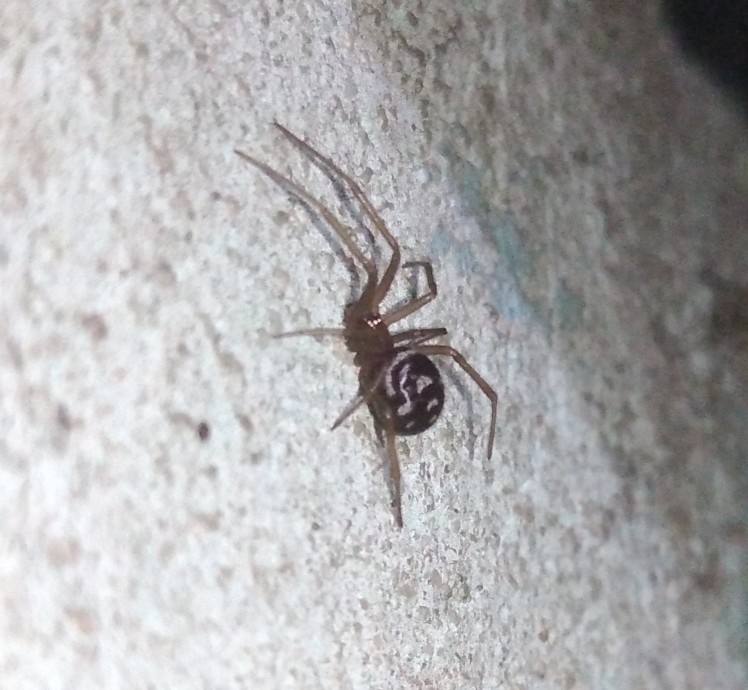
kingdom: Animalia
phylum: Arthropoda
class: Arachnida
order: Araneae
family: Theridiidae
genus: Steatoda
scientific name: Steatoda grossa
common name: False black widow
